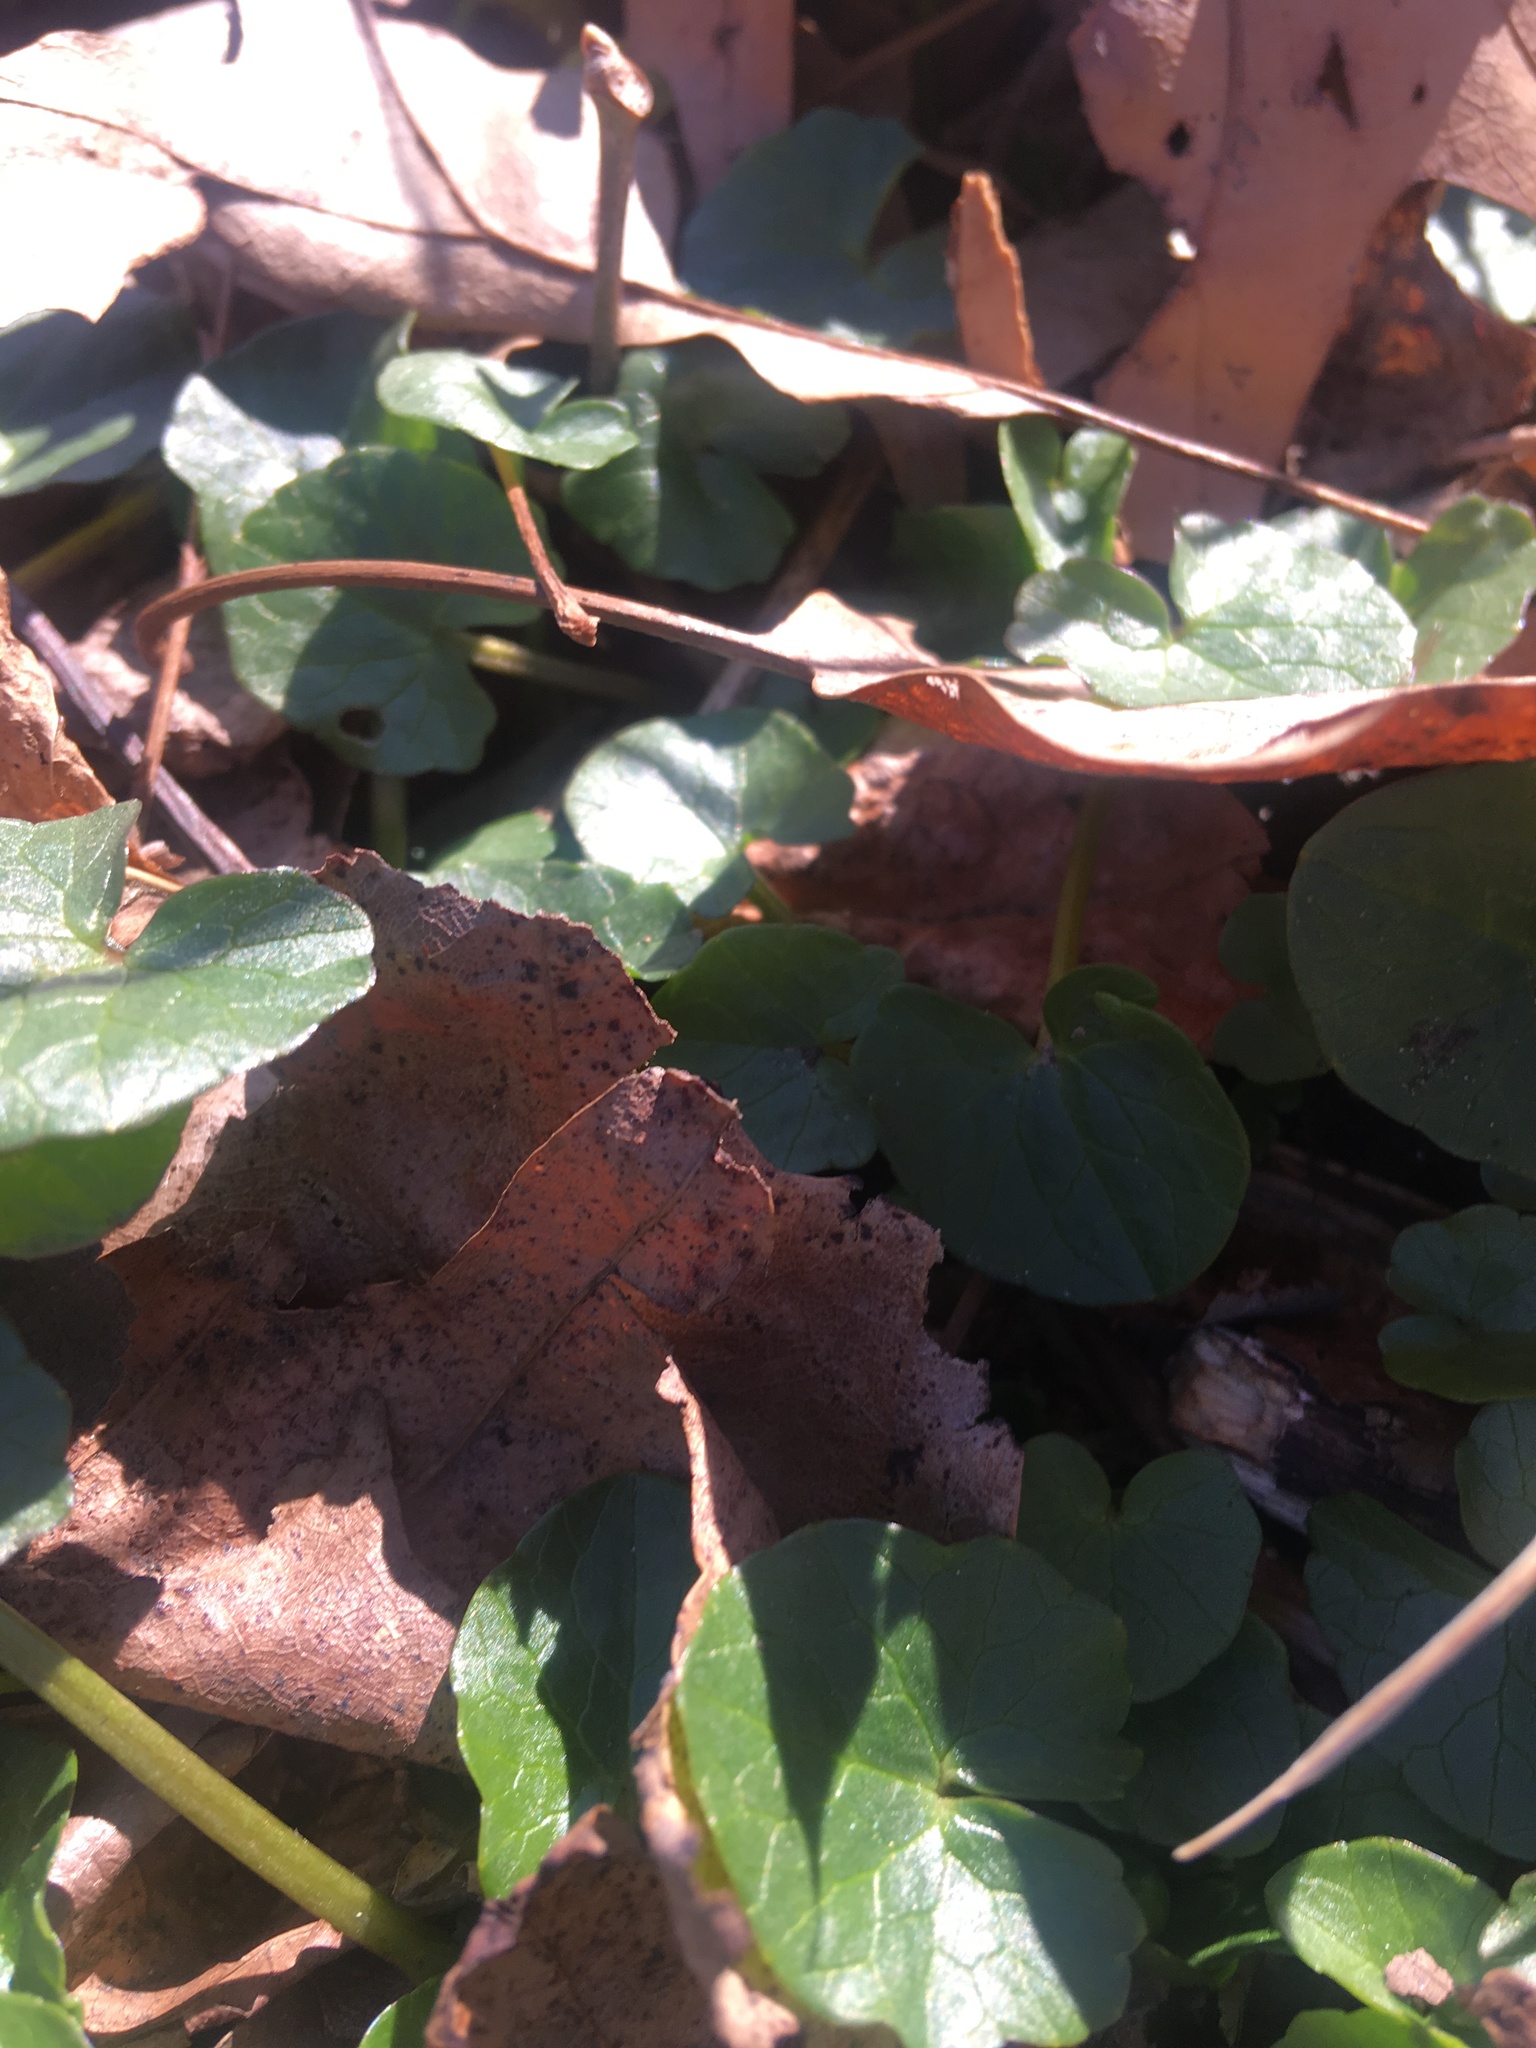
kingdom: Plantae
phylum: Tracheophyta
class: Magnoliopsida
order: Ranunculales
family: Ranunculaceae
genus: Ficaria
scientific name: Ficaria verna
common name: Lesser celandine
